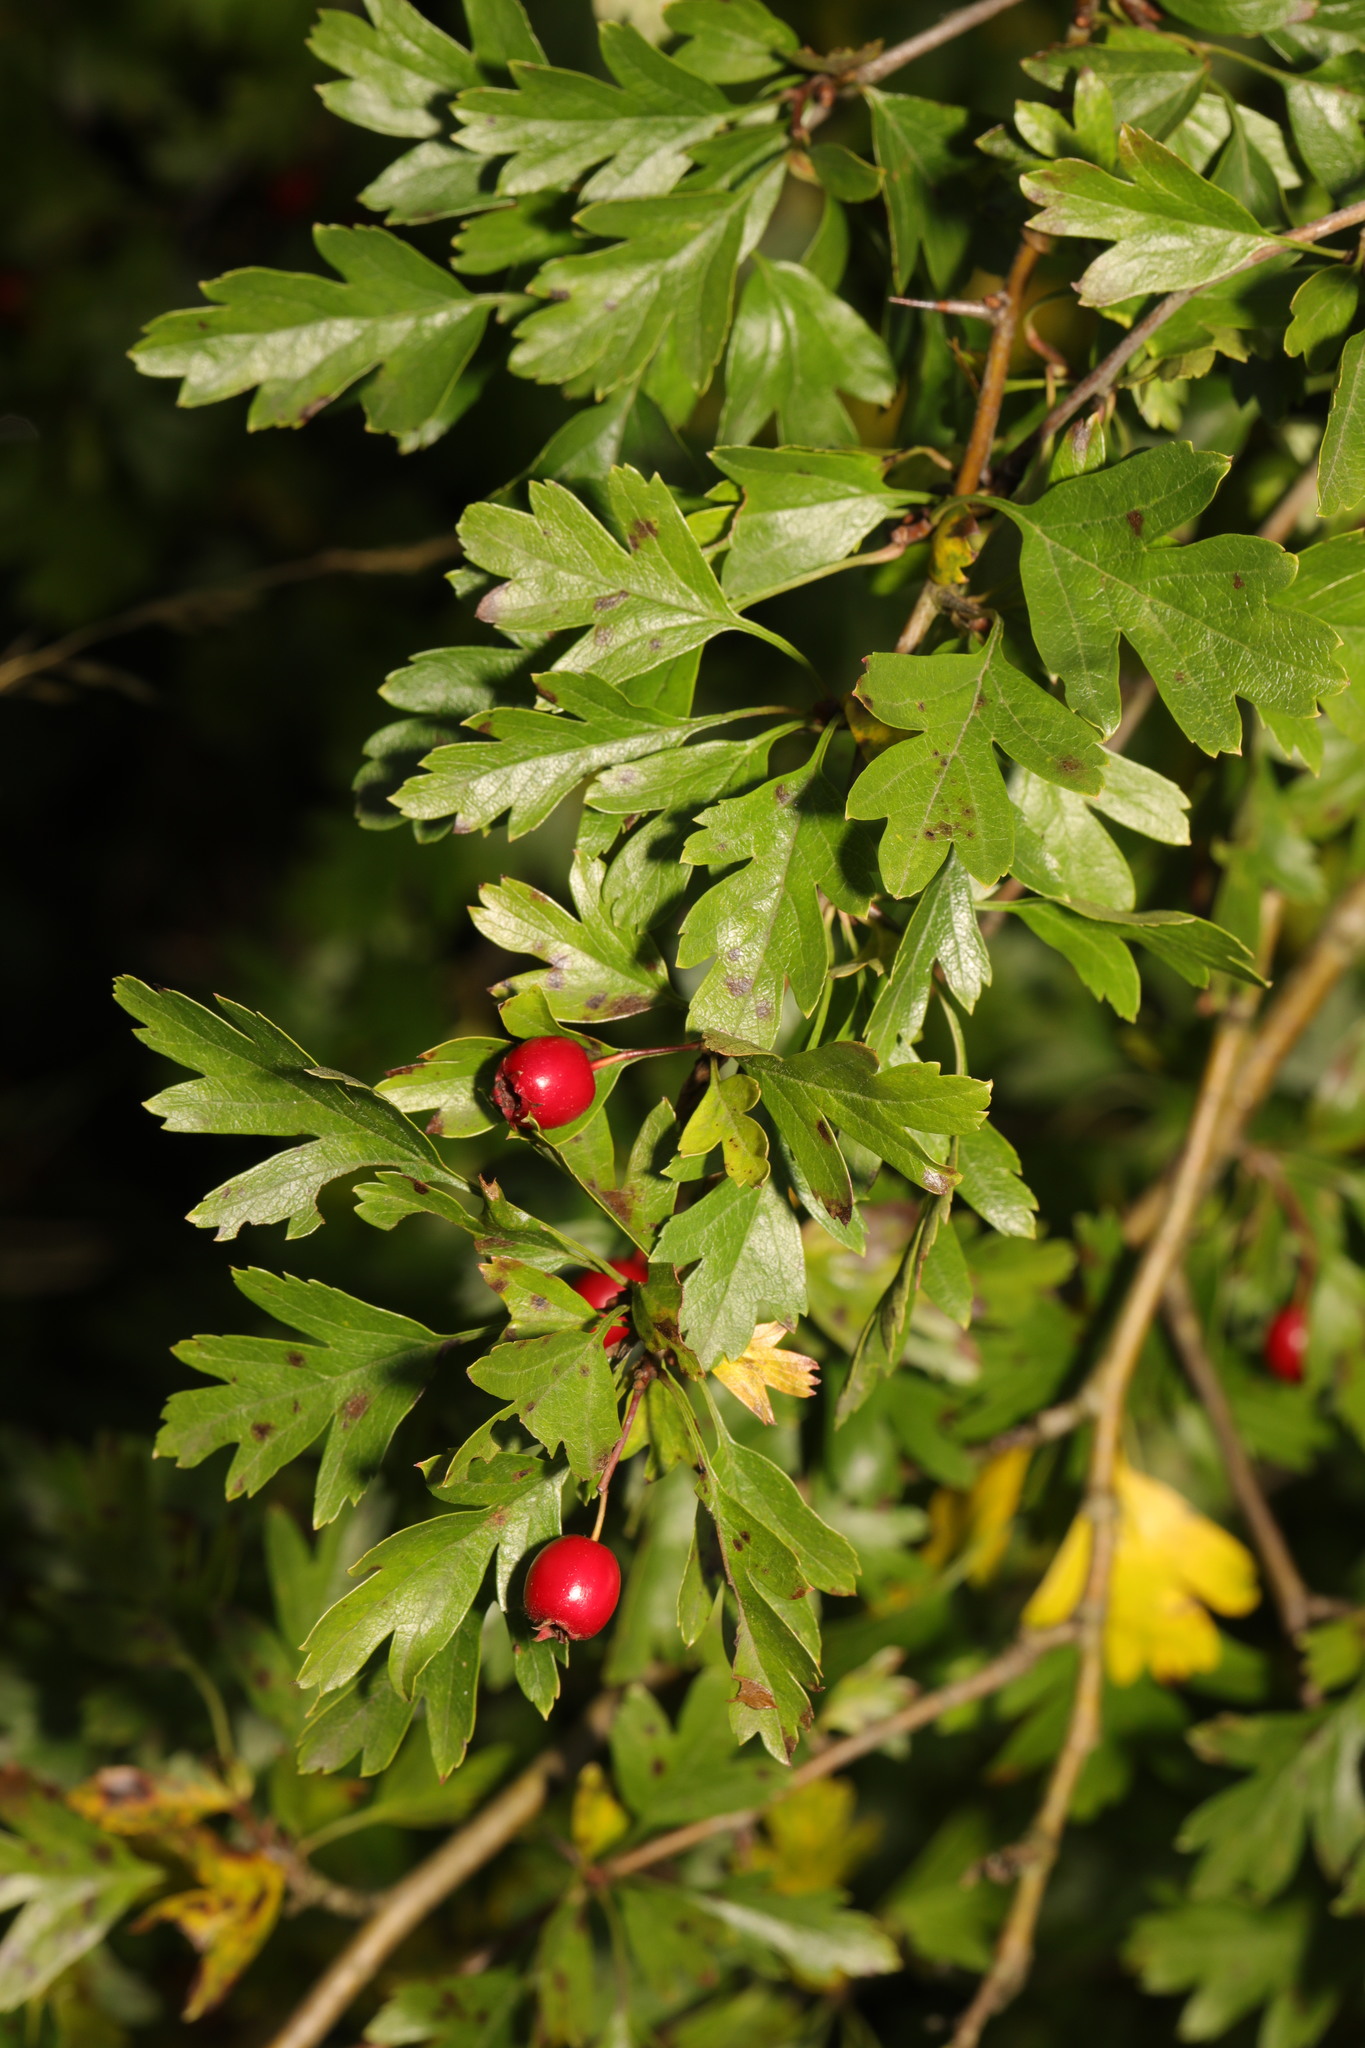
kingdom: Plantae
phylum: Tracheophyta
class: Magnoliopsida
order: Rosales
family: Rosaceae
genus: Crataegus
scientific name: Crataegus monogyna
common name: Hawthorn
